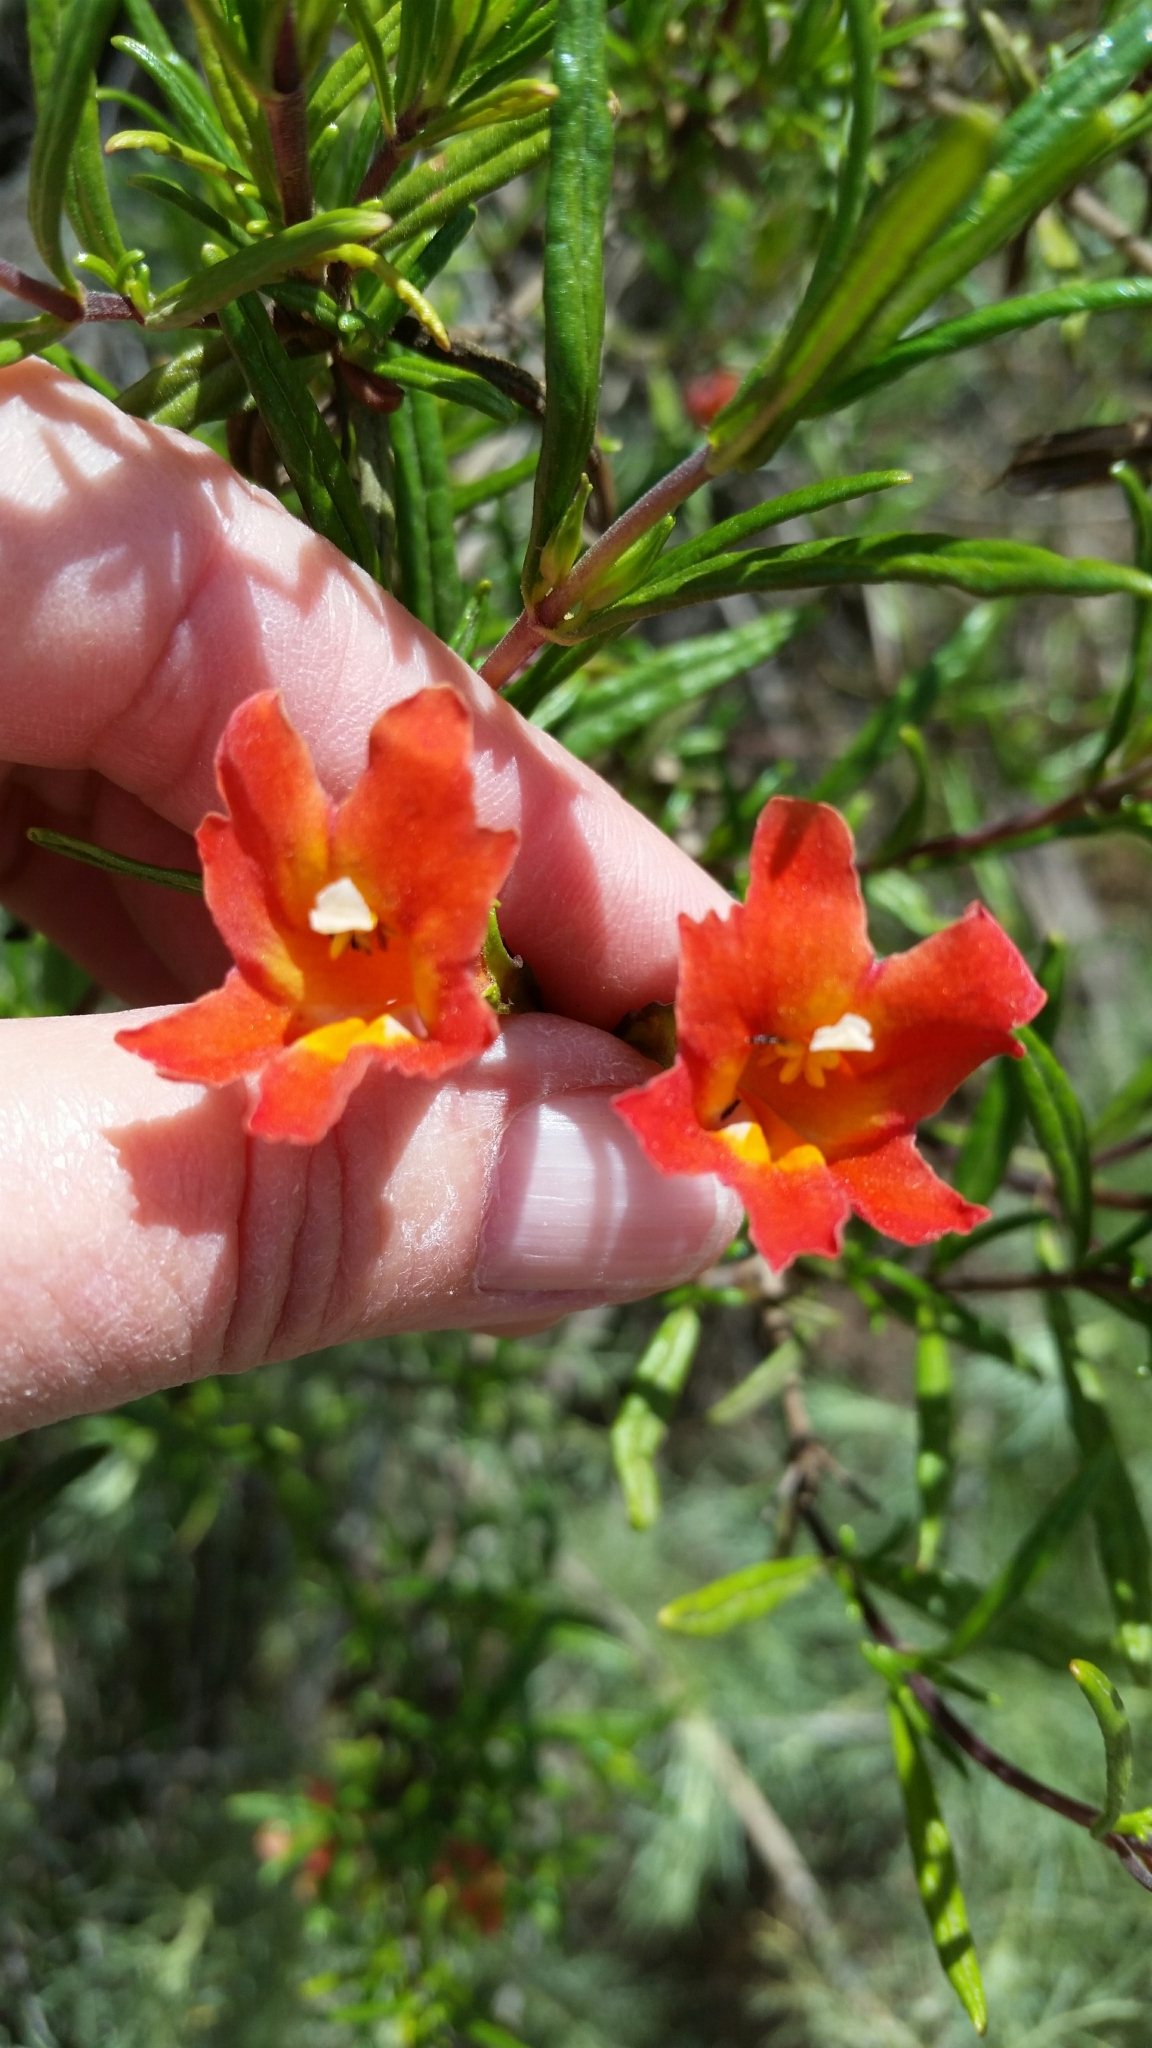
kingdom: Plantae
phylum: Tracheophyta
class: Magnoliopsida
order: Lamiales
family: Phrymaceae
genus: Diplacus
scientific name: Diplacus puniceus
